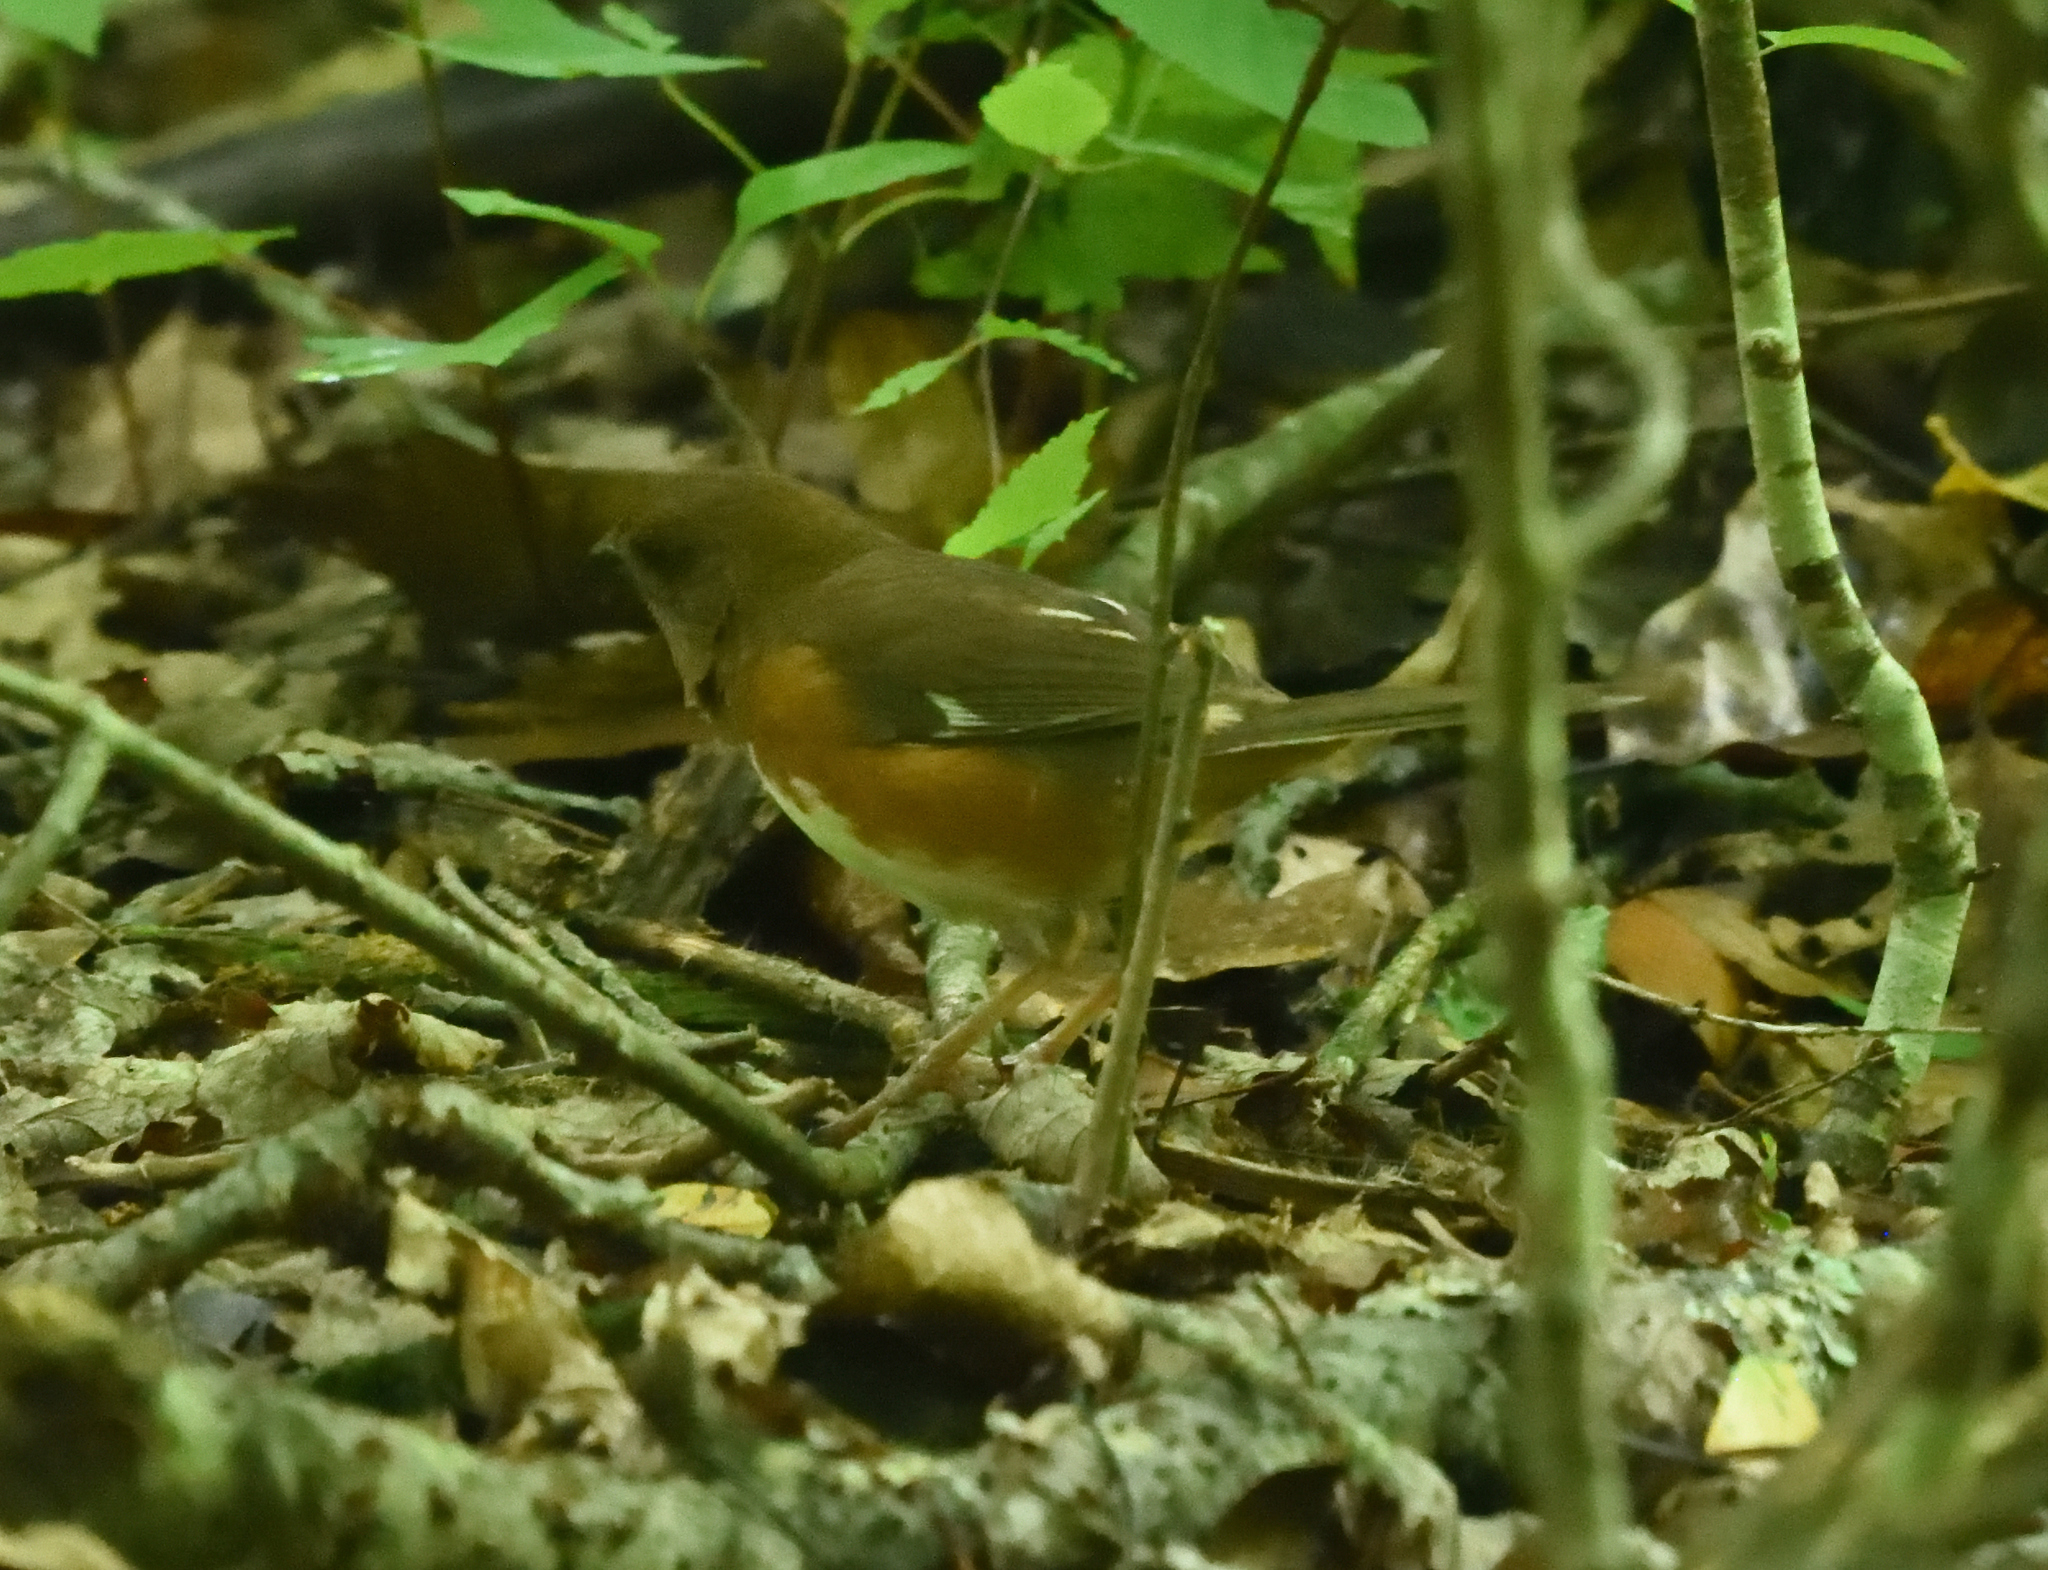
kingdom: Animalia
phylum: Chordata
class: Aves
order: Passeriformes
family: Passerellidae
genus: Pipilo
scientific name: Pipilo erythrophthalmus
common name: Eastern towhee
